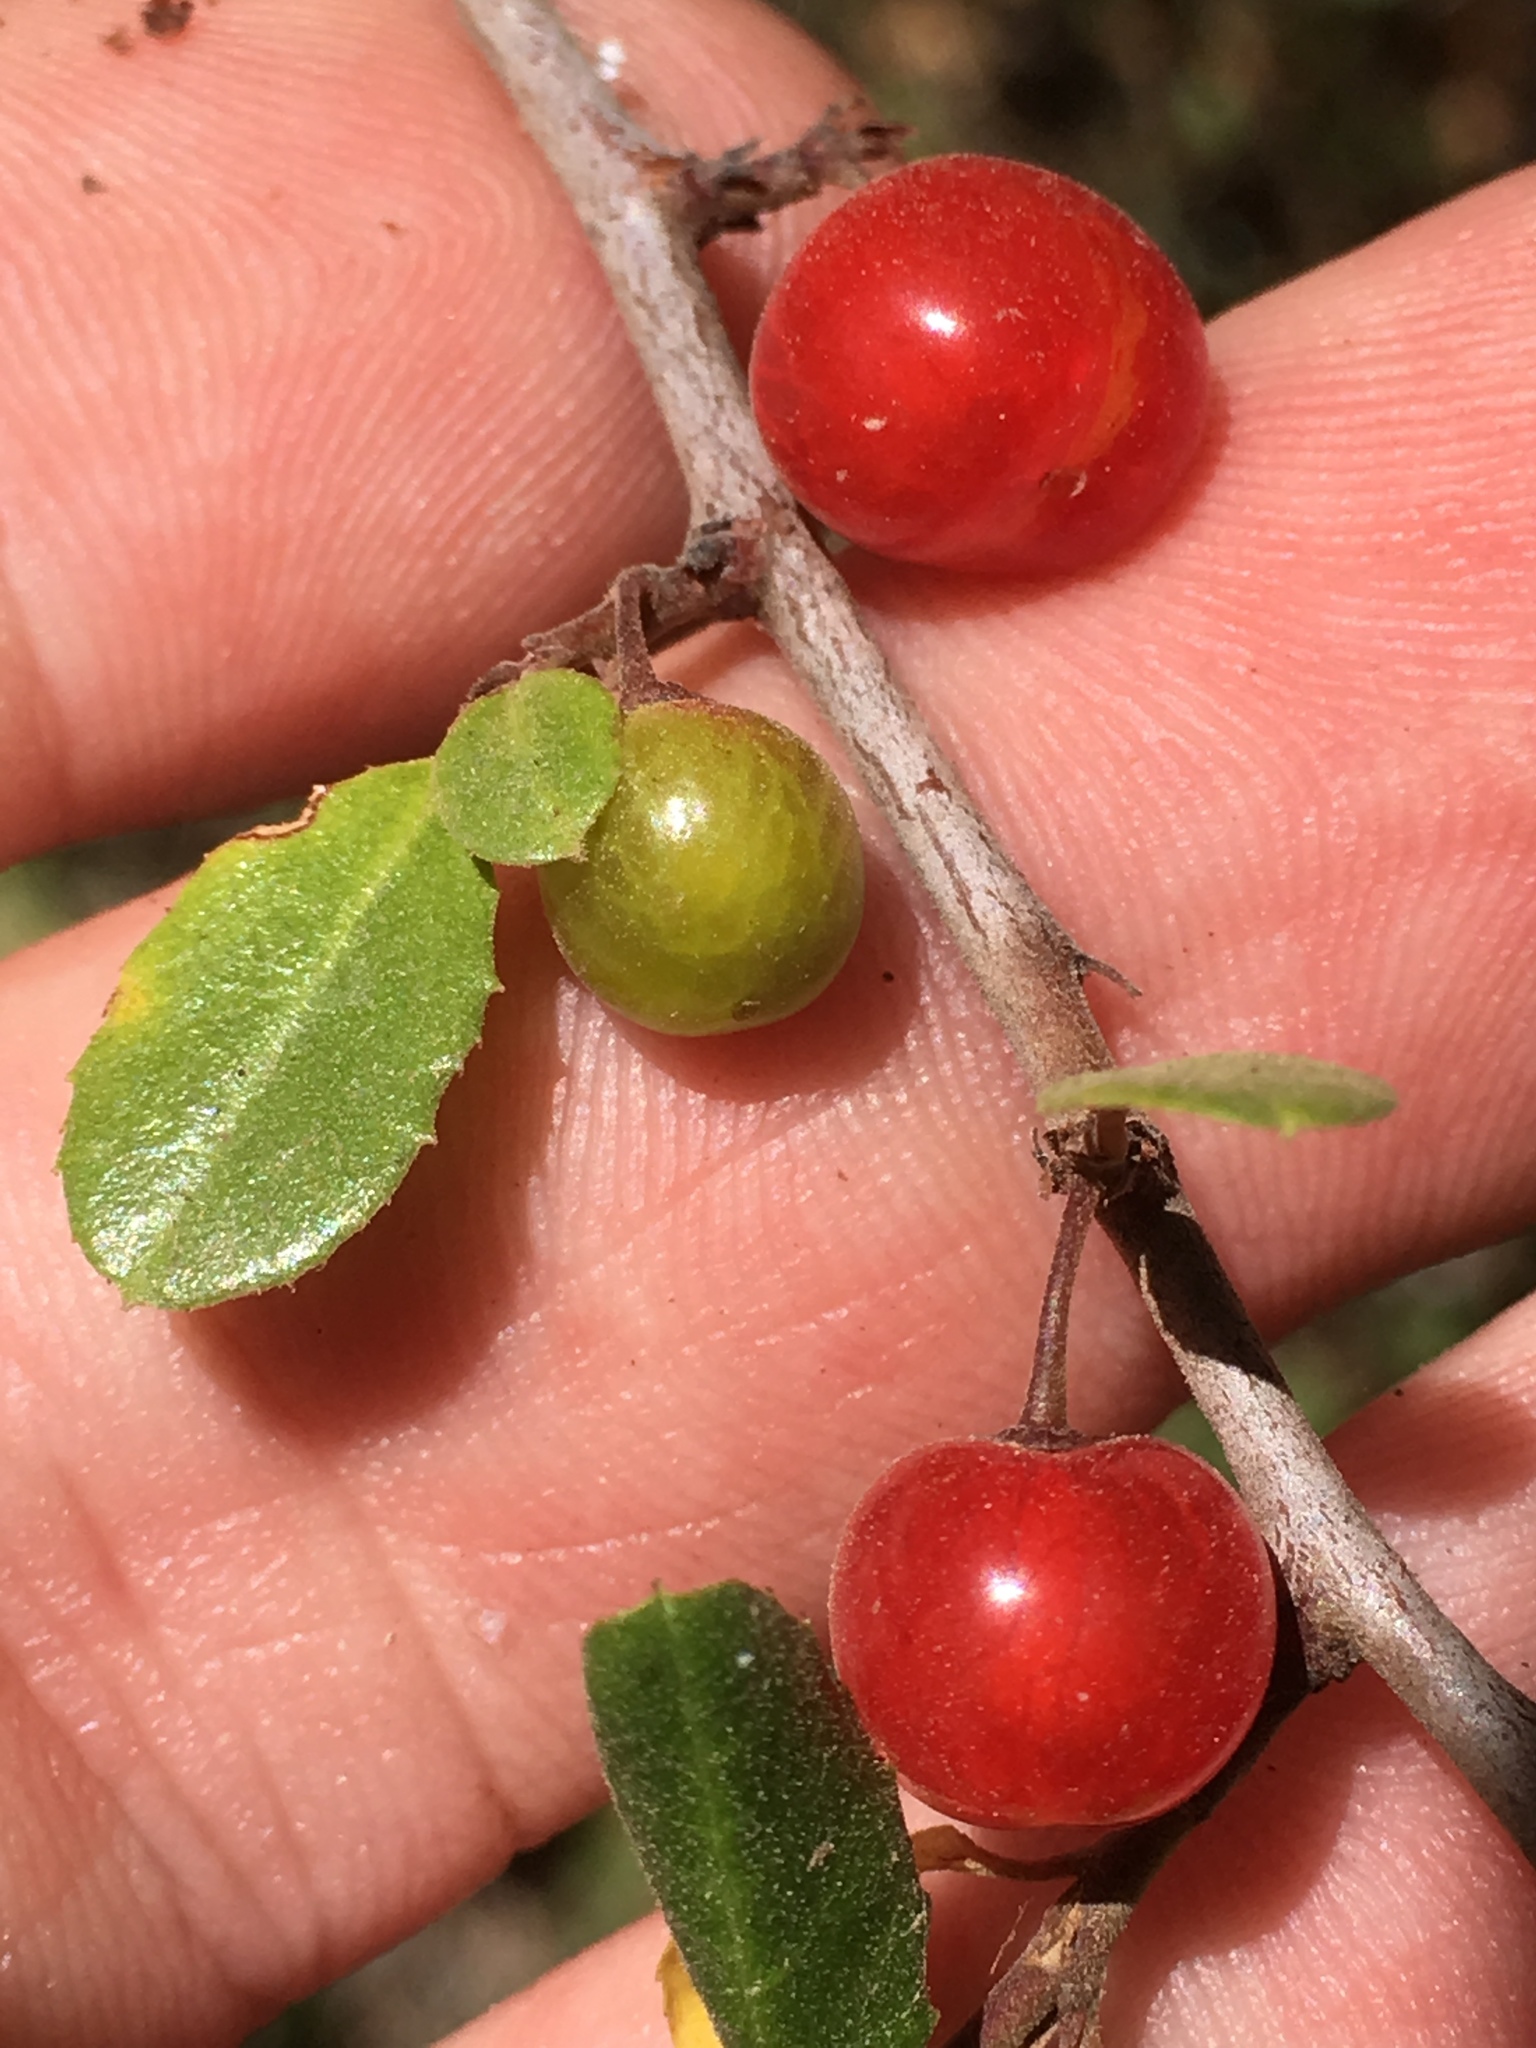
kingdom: Plantae
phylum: Tracheophyta
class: Magnoliopsida
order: Rosales
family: Rhamnaceae
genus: Endotropis
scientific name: Endotropis crocea
